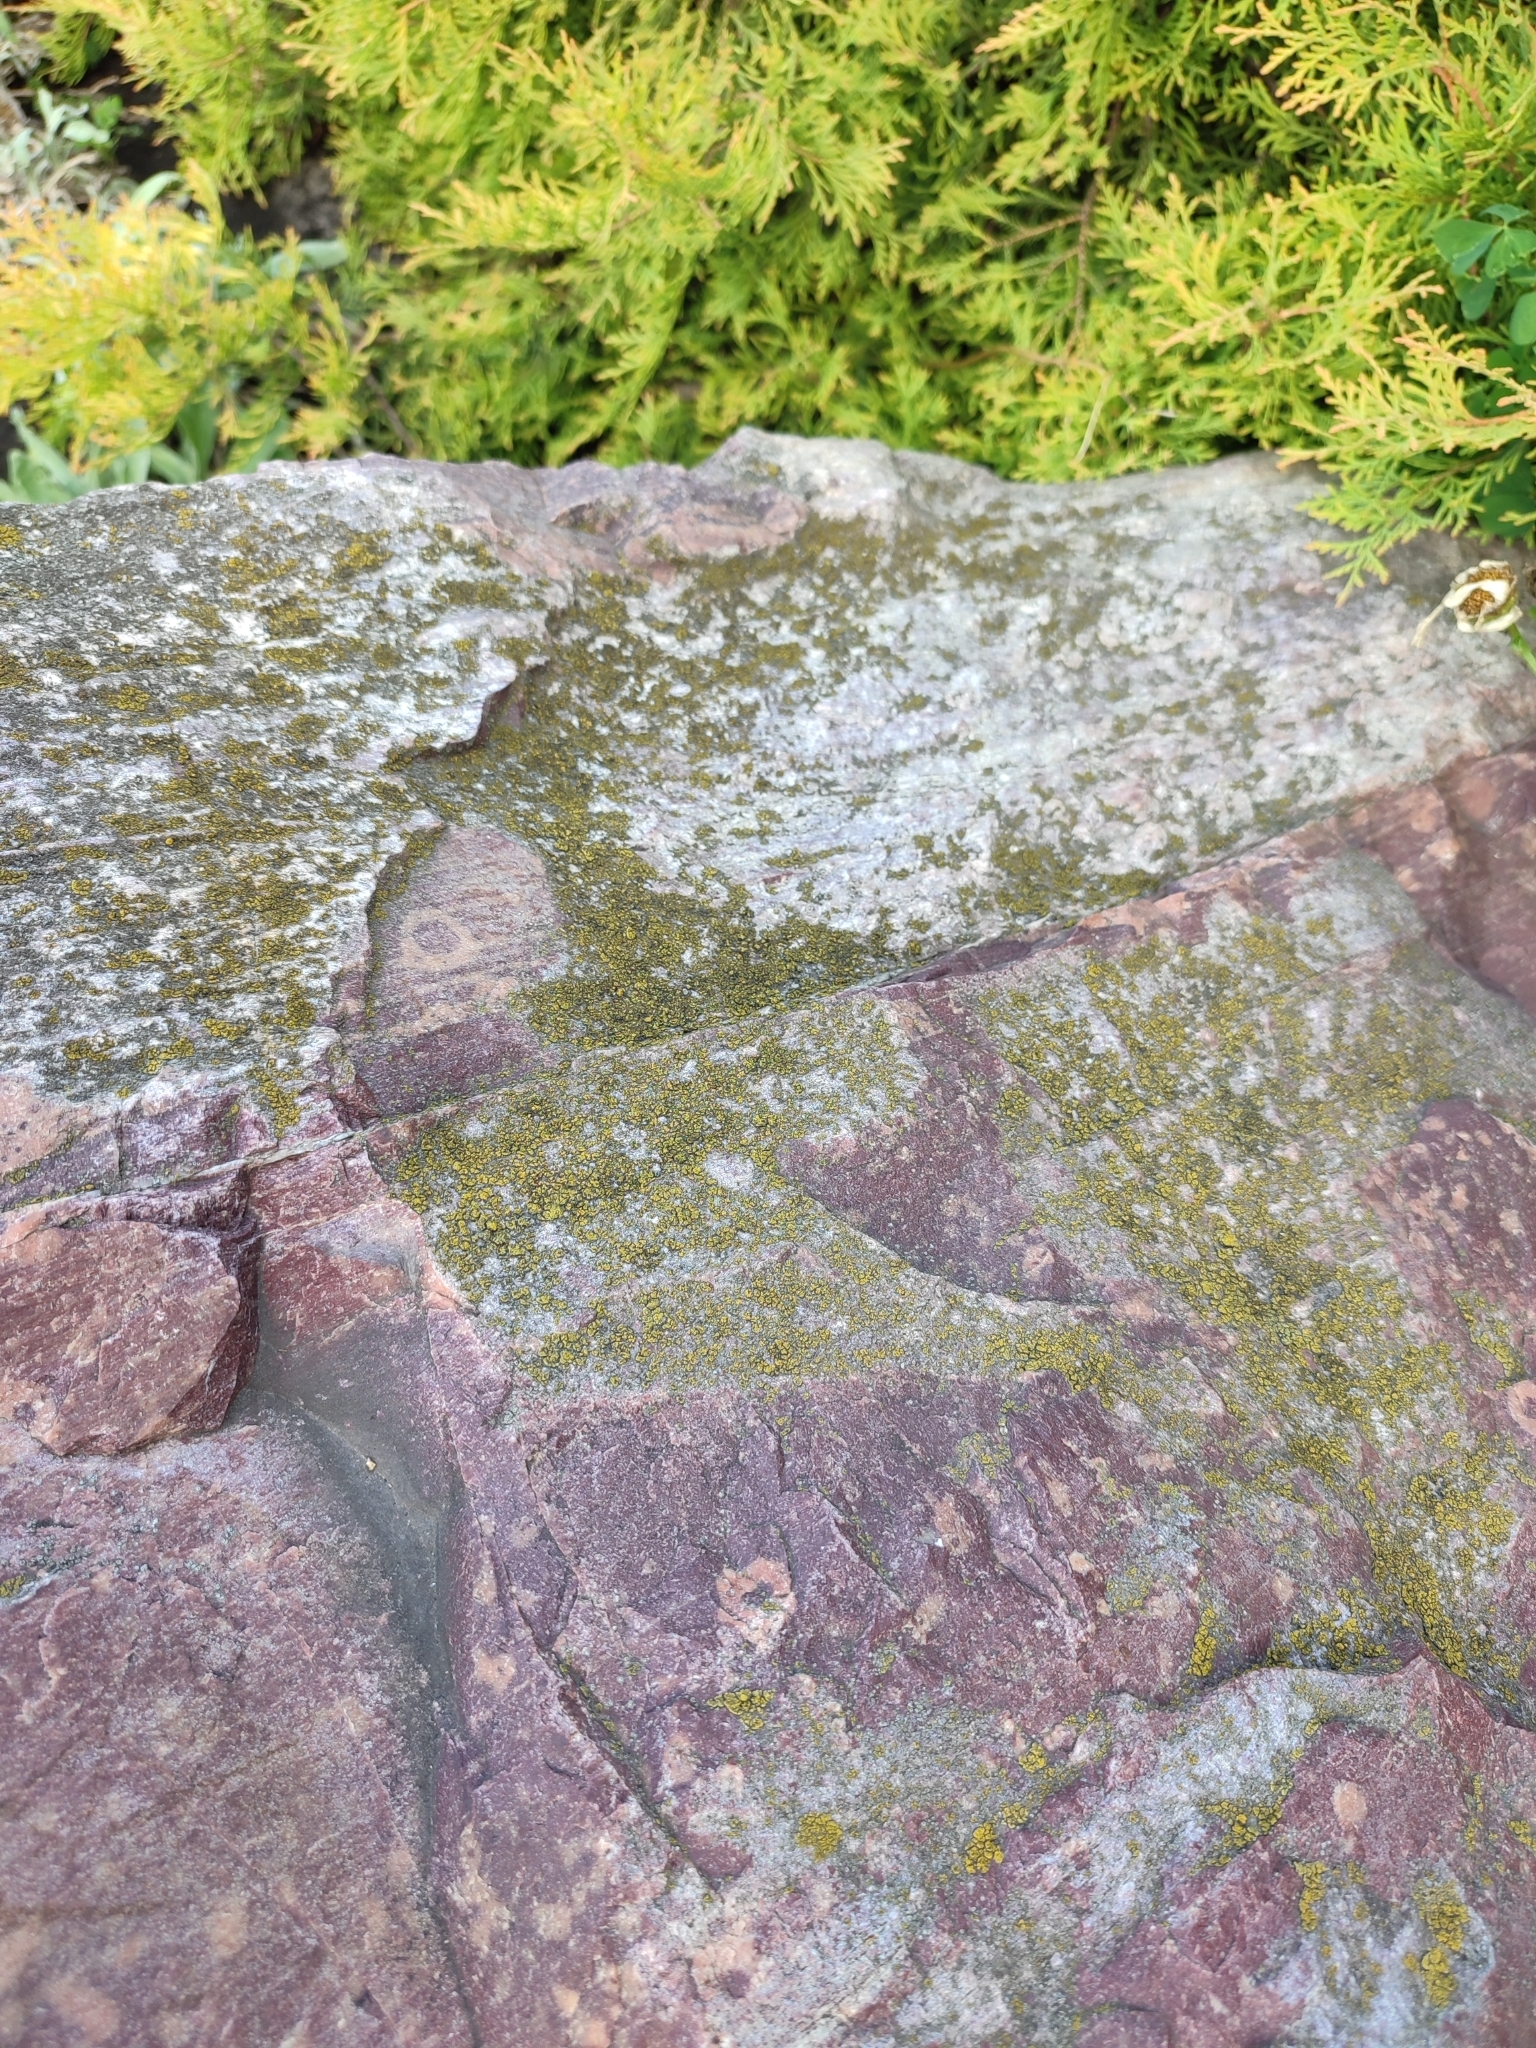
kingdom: Fungi
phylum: Ascomycota
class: Lecanoromycetes
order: Lecanorales
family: Lecanoraceae
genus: Polyozosia
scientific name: Polyozosia dispersa
